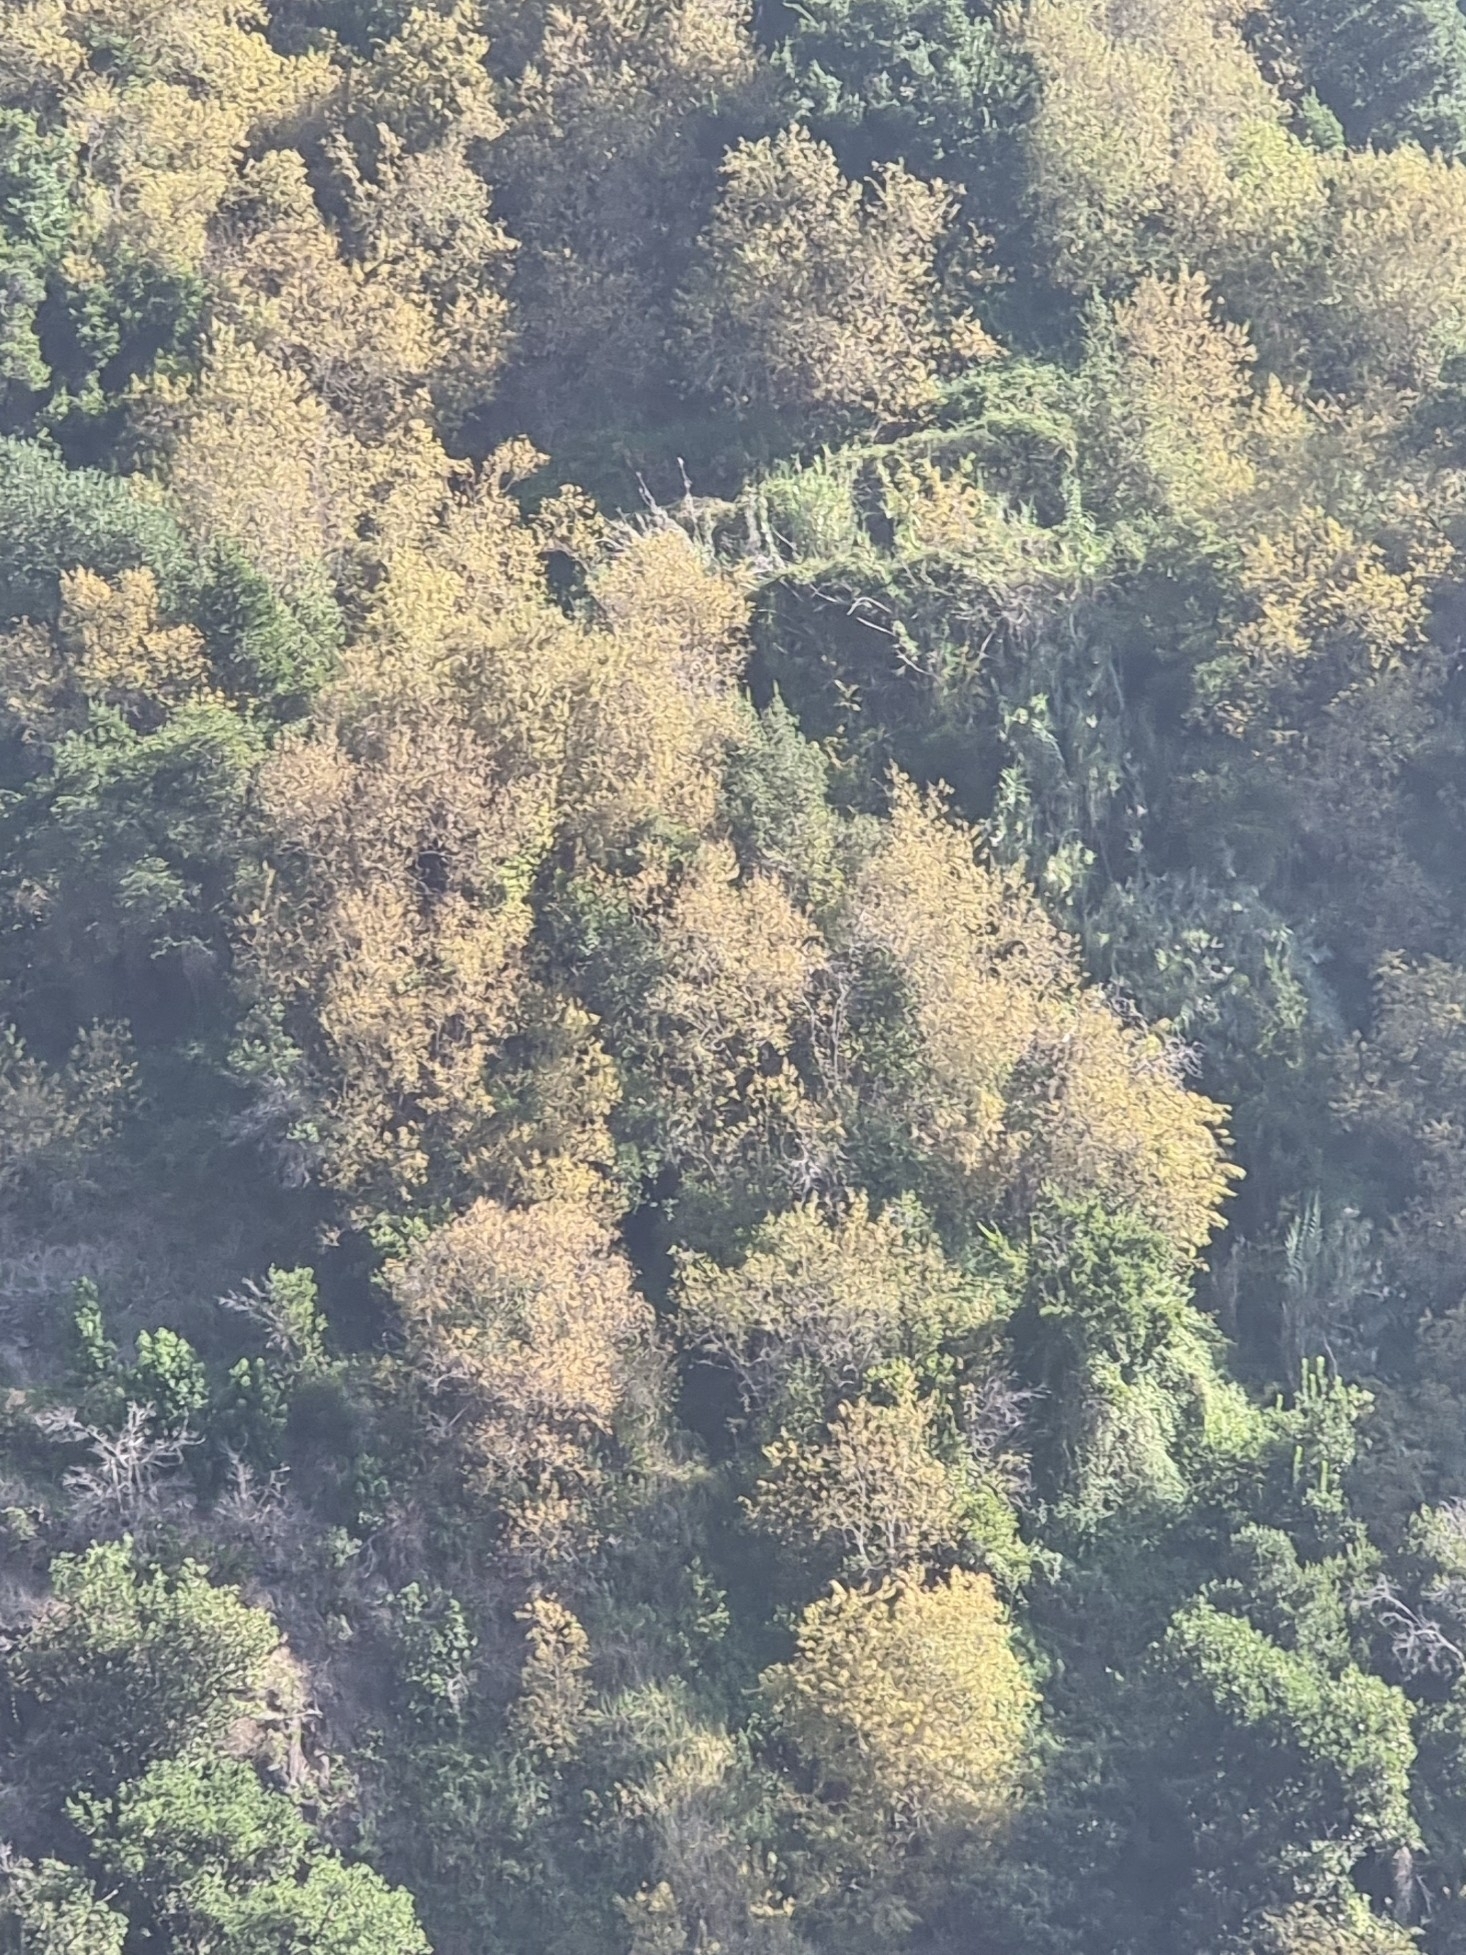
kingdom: Plantae
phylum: Tracheophyta
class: Magnoliopsida
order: Malpighiales
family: Salicaceae
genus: Salix
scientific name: Salix canariensis
